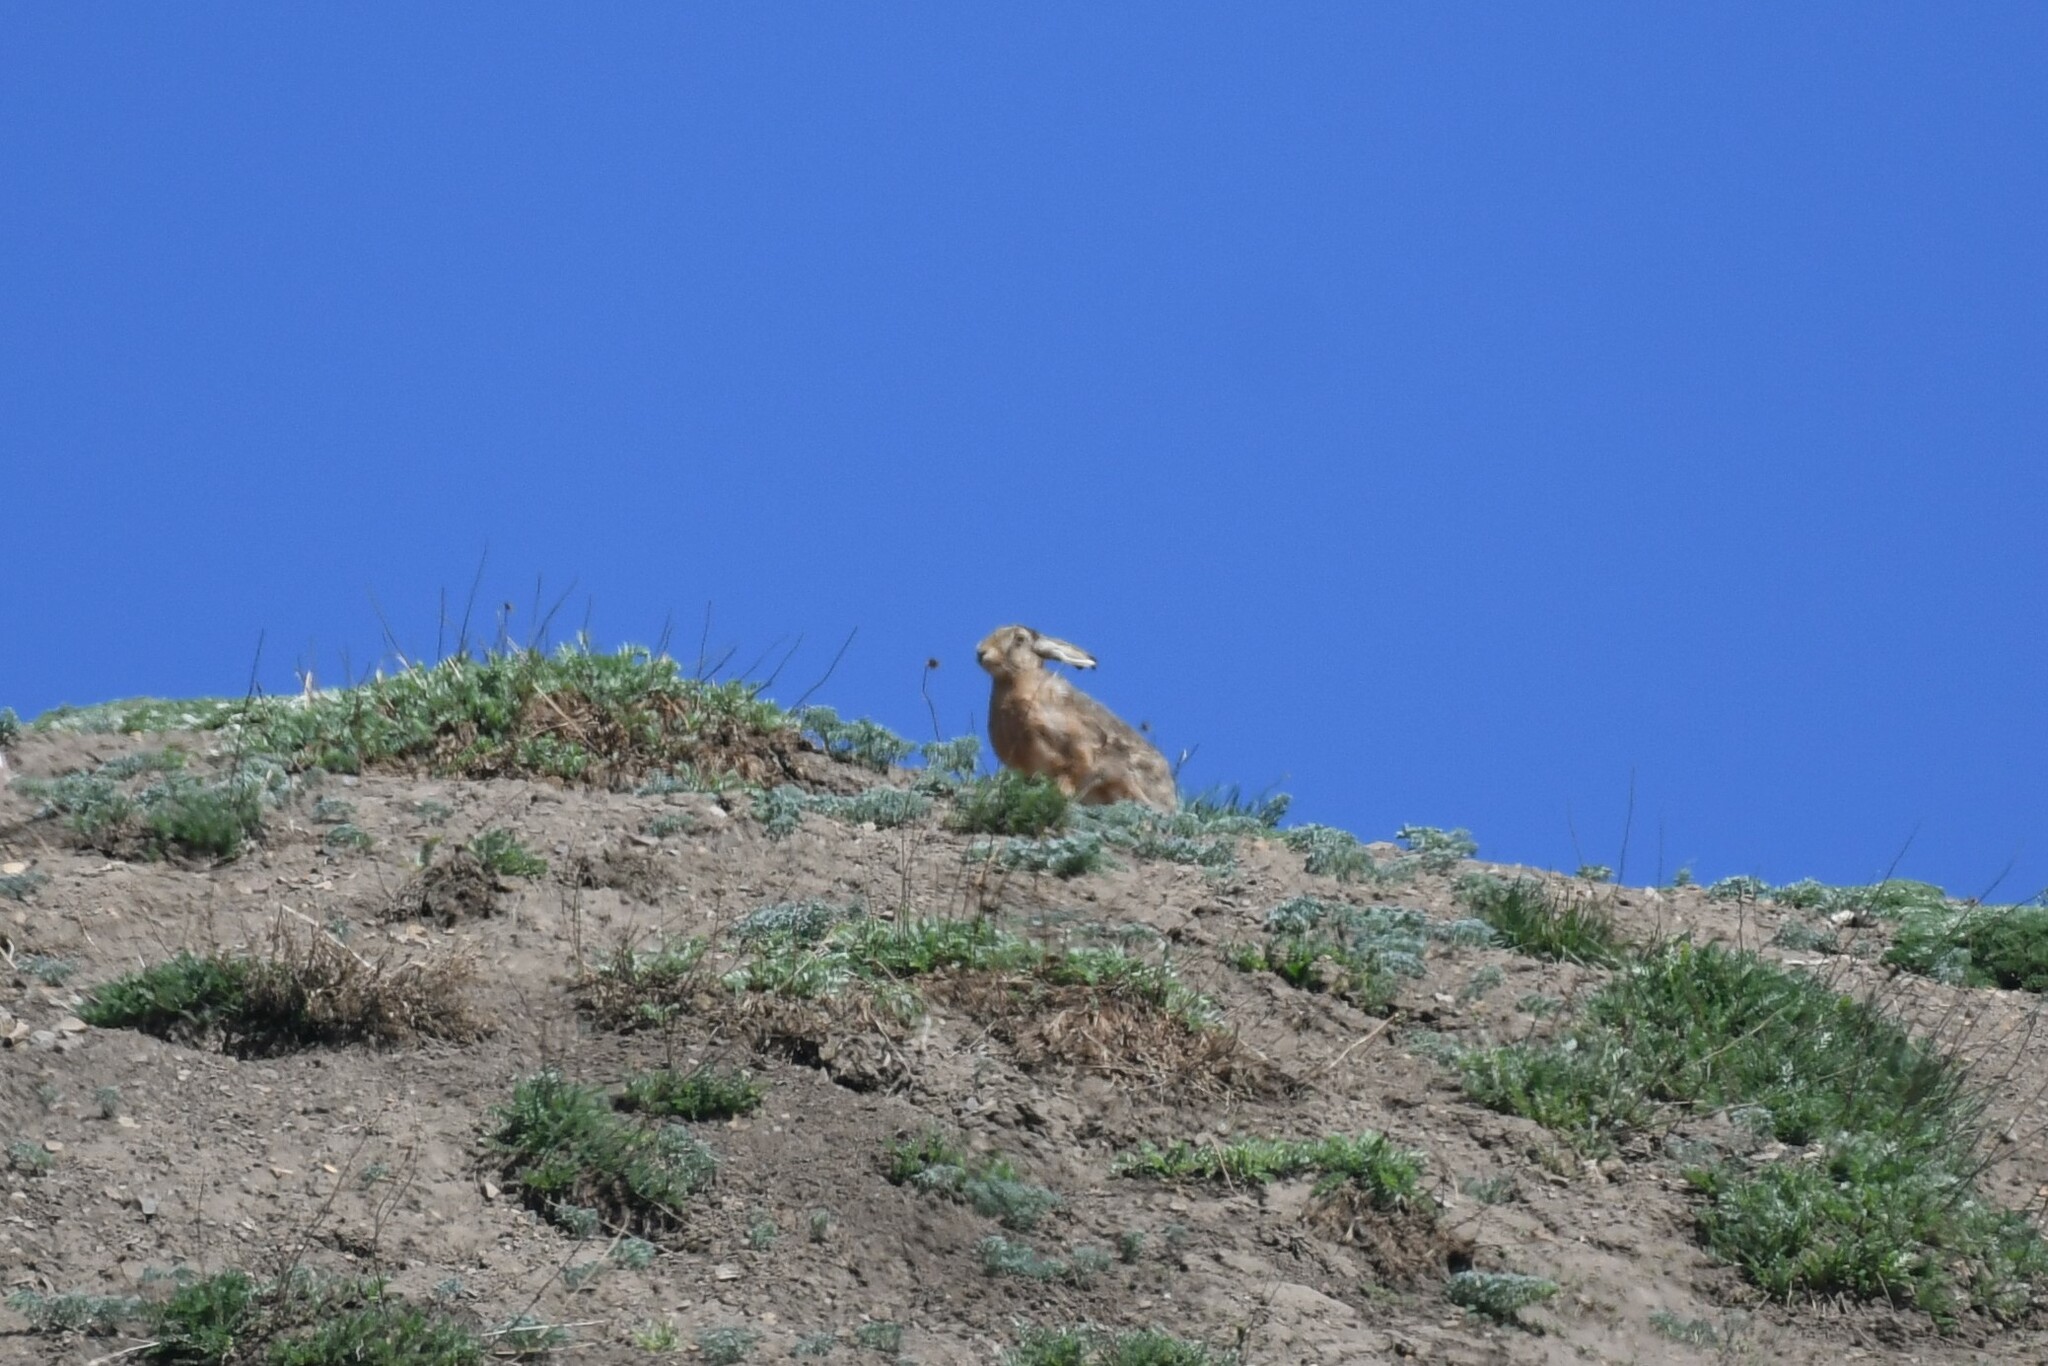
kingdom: Animalia
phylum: Chordata
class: Mammalia
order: Lagomorpha
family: Leporidae
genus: Lepus
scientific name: Lepus europaeus
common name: European hare
